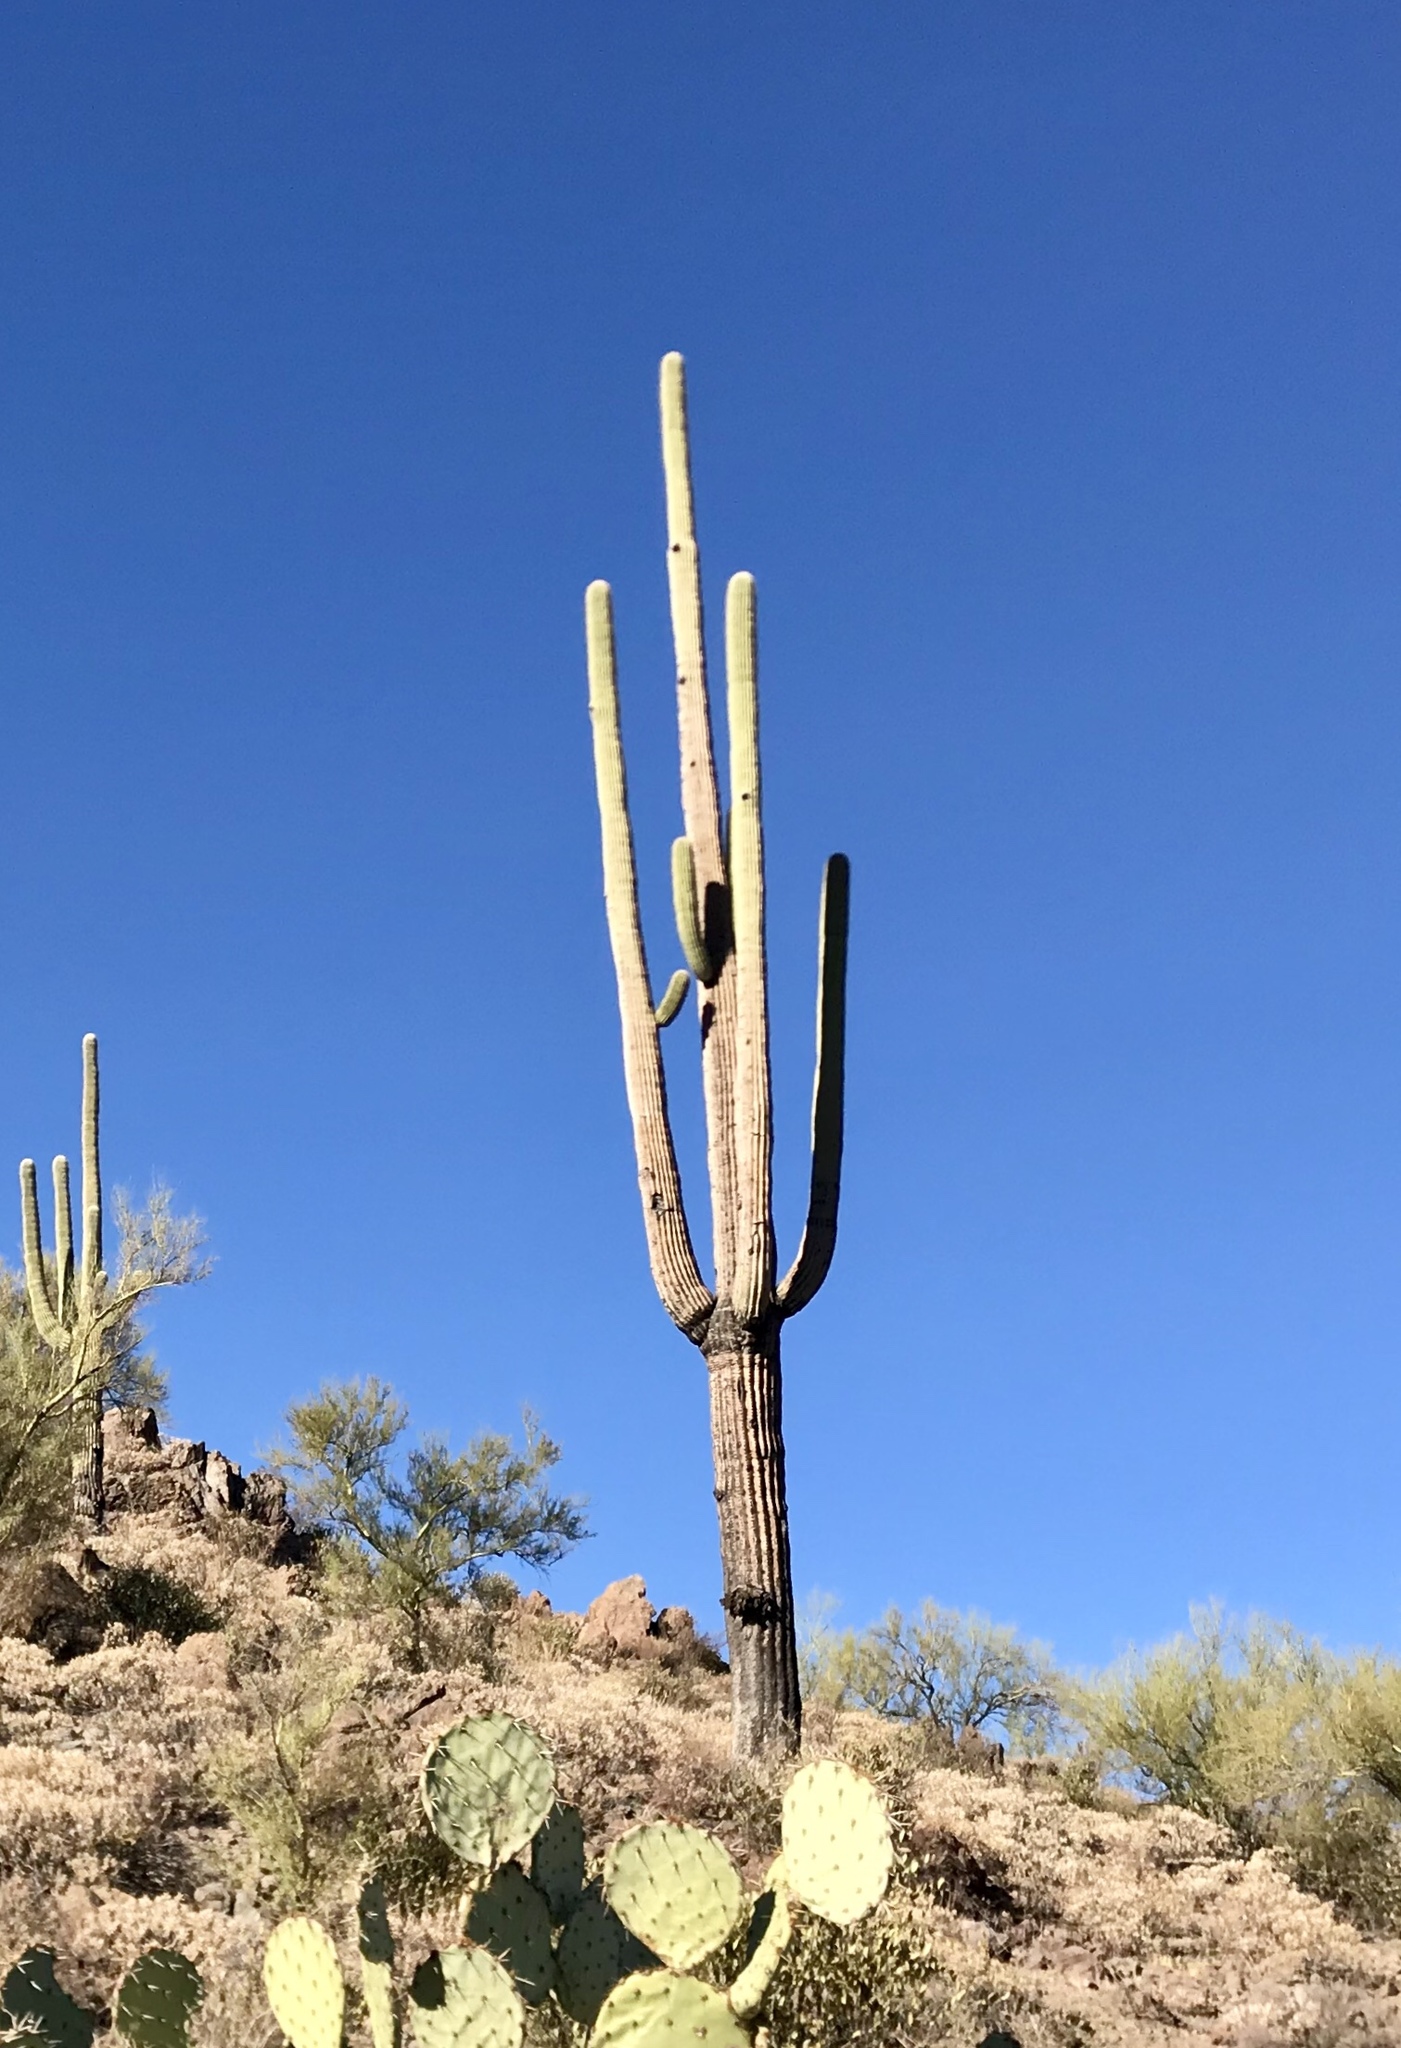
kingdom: Plantae
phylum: Tracheophyta
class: Magnoliopsida
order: Caryophyllales
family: Cactaceae
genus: Carnegiea
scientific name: Carnegiea gigantea
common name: Saguaro
